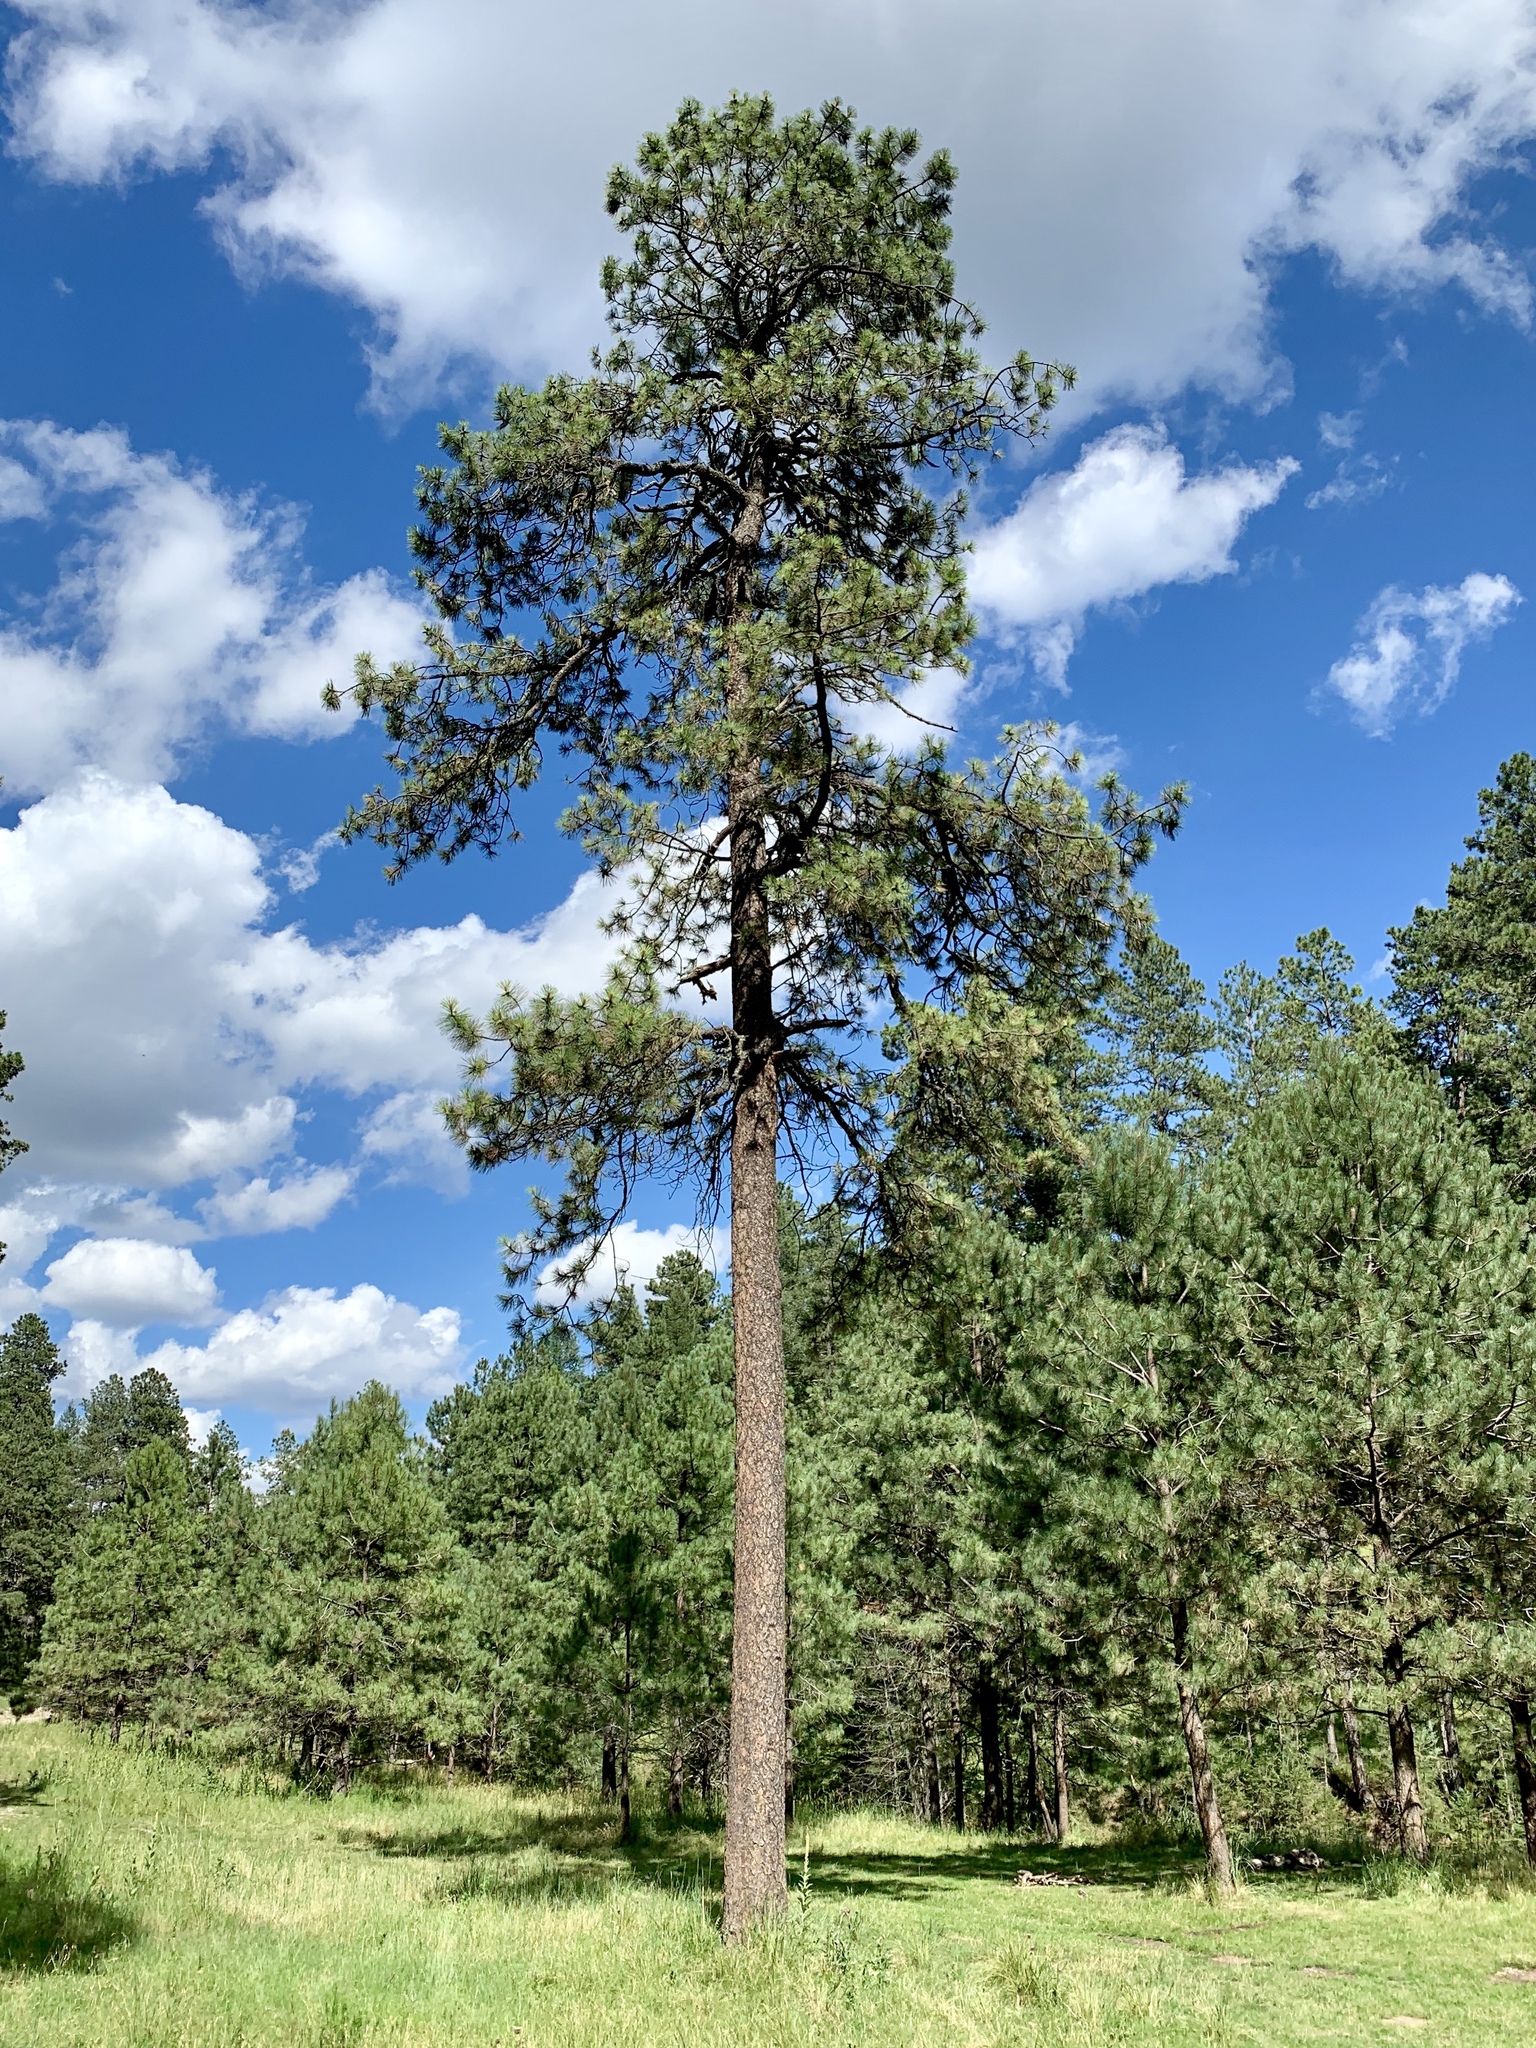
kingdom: Plantae
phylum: Tracheophyta
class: Pinopsida
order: Pinales
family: Pinaceae
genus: Pinus
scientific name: Pinus ponderosa
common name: Western yellow-pine
